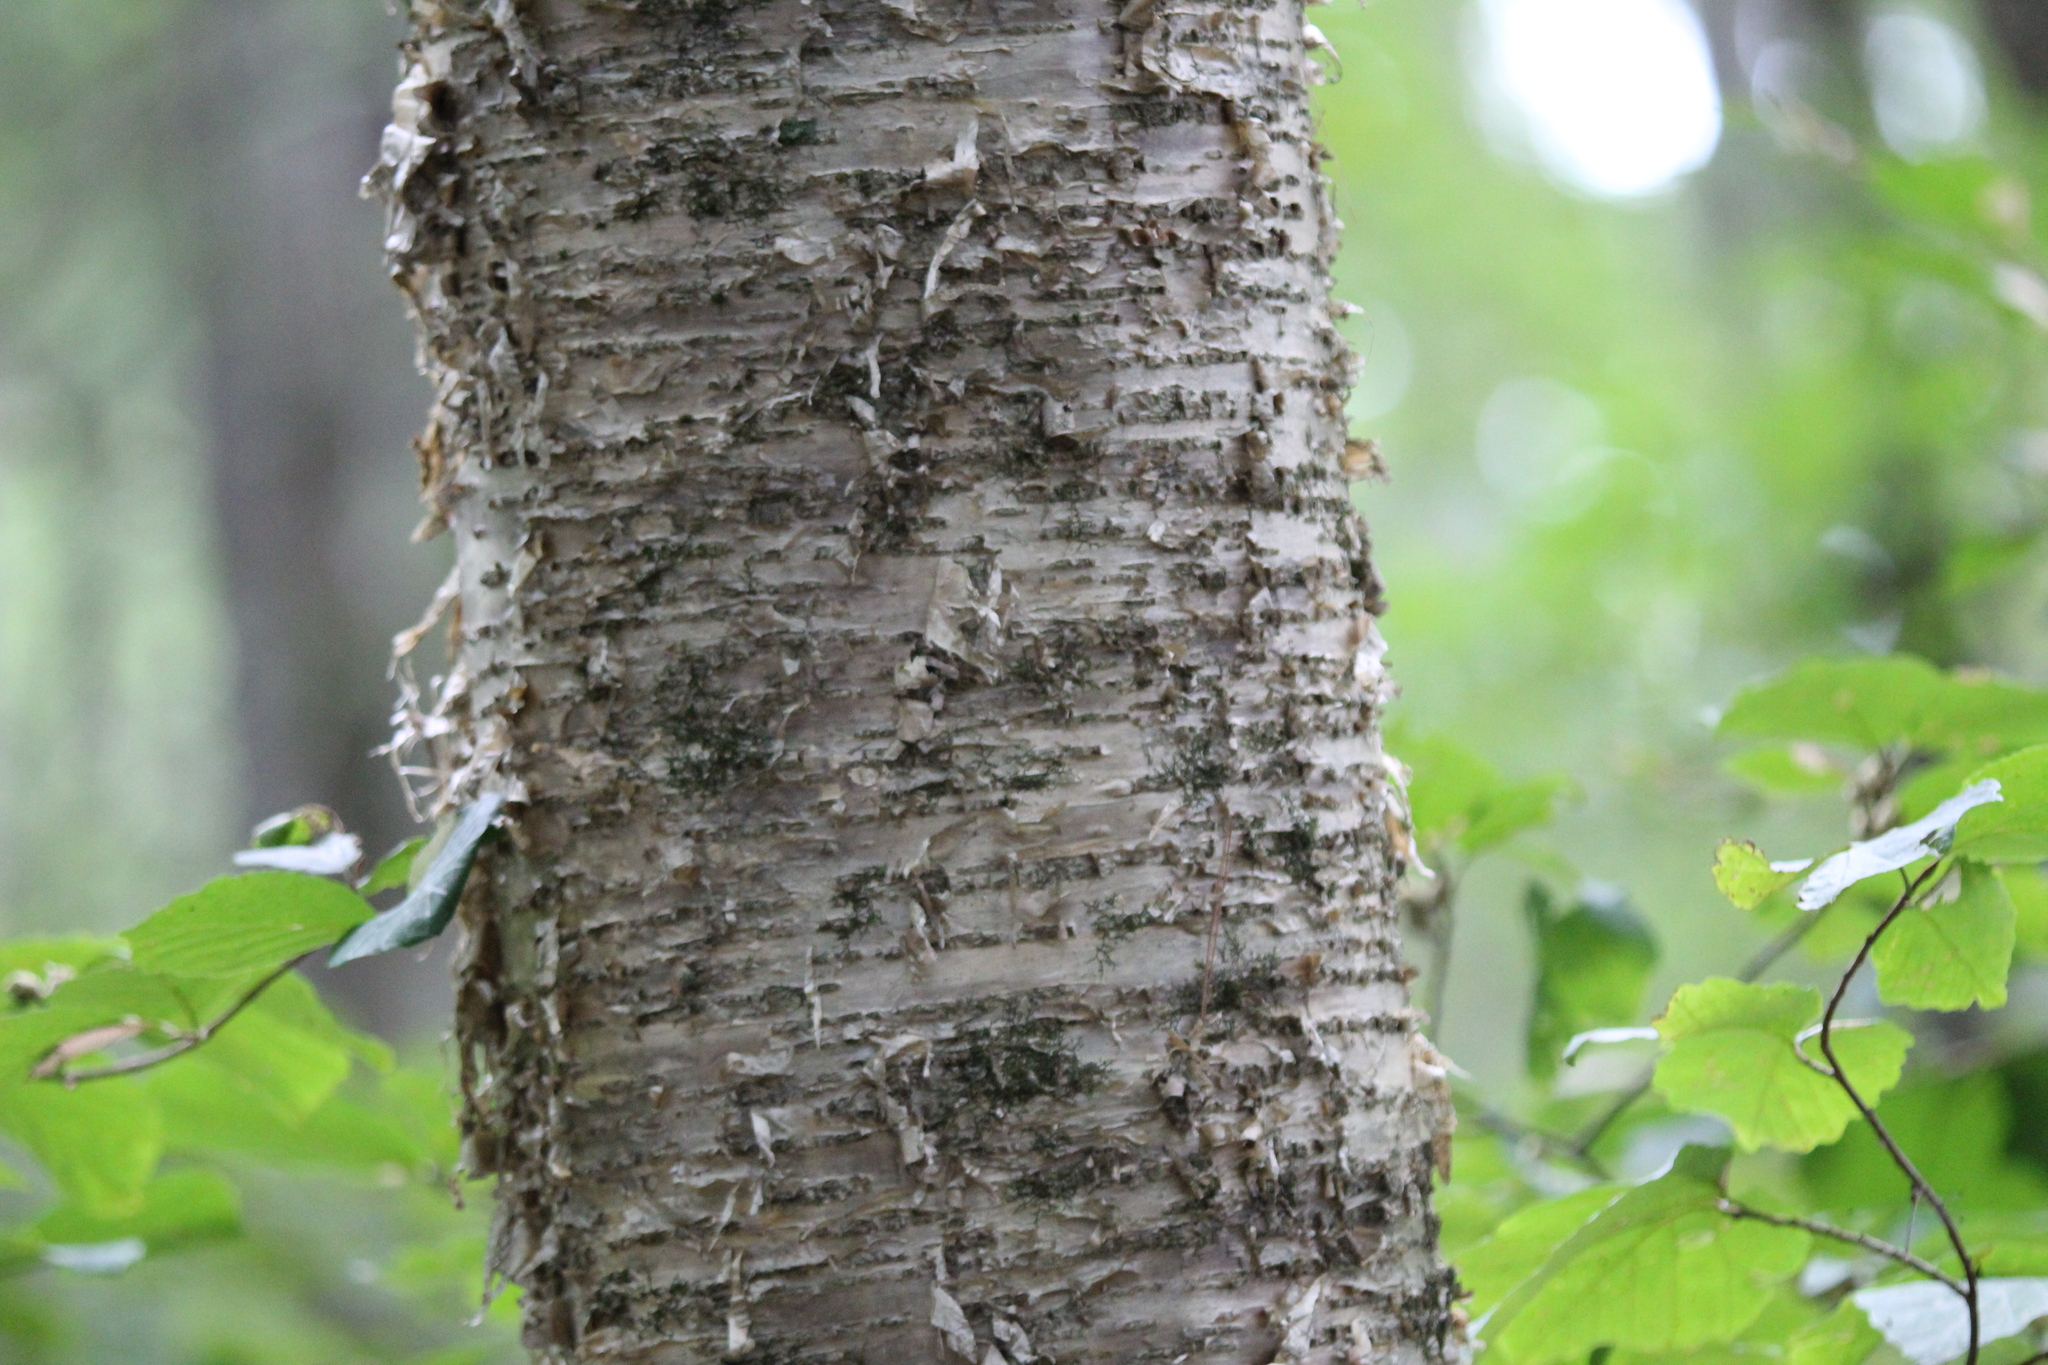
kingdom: Plantae
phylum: Tracheophyta
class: Magnoliopsida
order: Fagales
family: Betulaceae
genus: Betula
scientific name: Betula alleghaniensis
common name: Yellow birch
